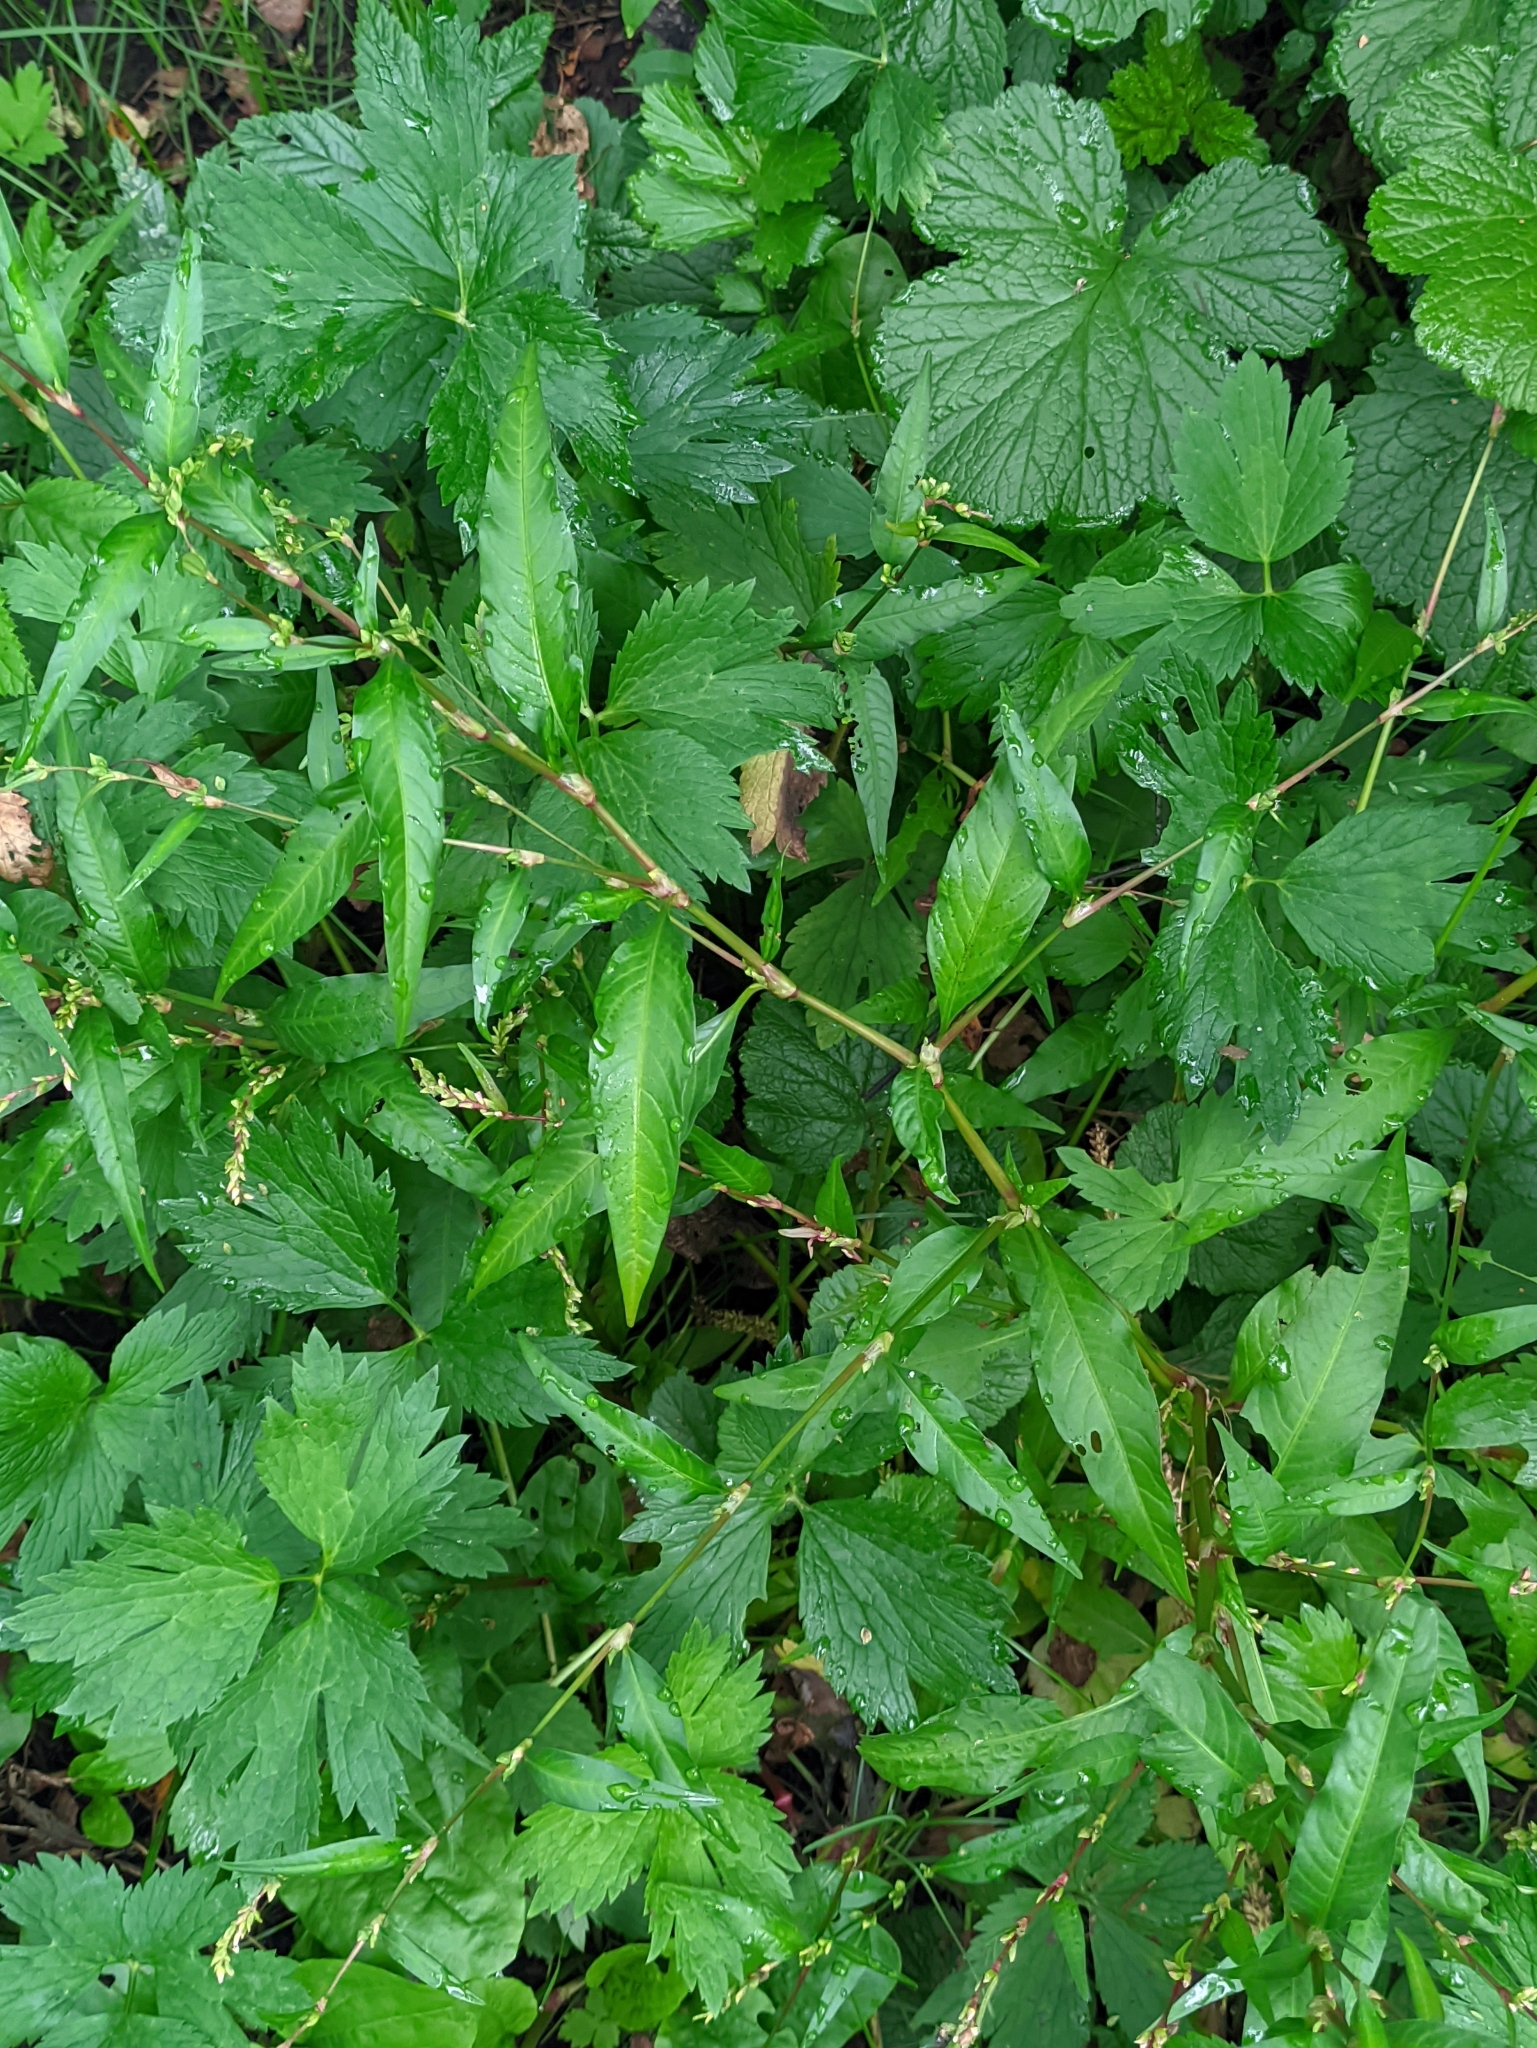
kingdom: Plantae
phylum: Tracheophyta
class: Magnoliopsida
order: Caryophyllales
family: Polygonaceae
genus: Persicaria
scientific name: Persicaria hydropiper
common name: Water-pepper
